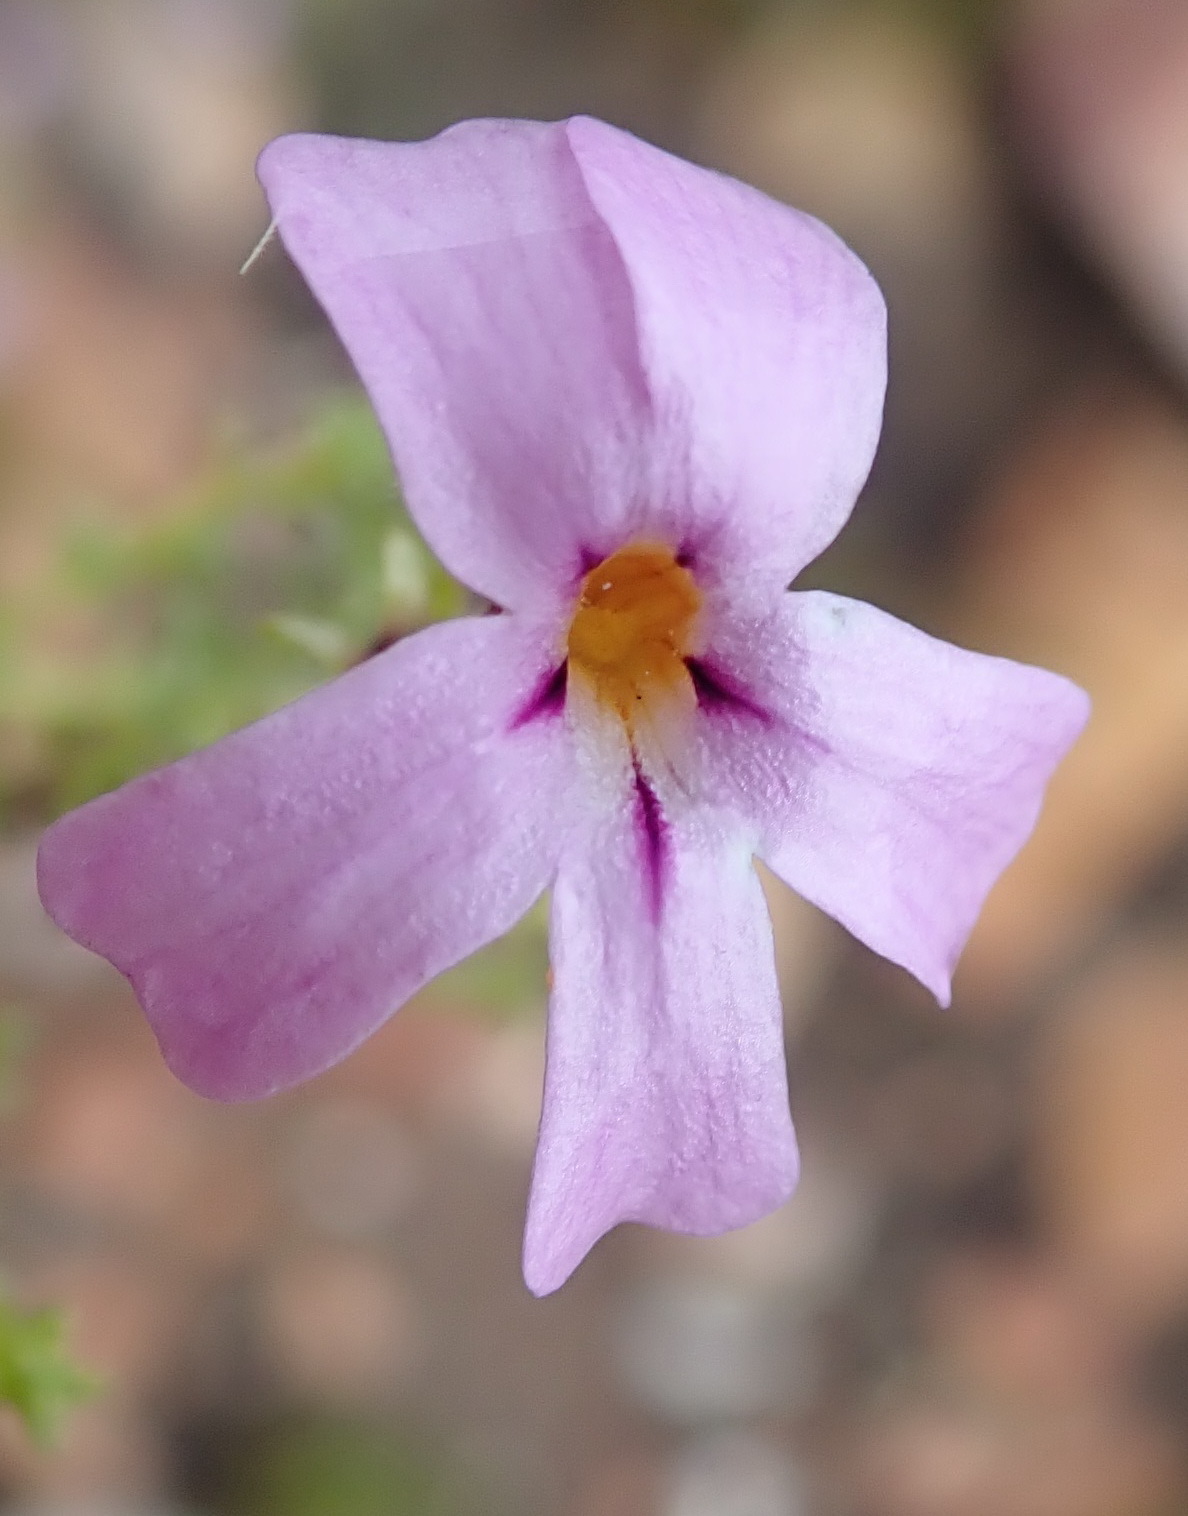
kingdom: Plantae
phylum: Tracheophyta
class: Magnoliopsida
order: Lamiales
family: Scrophulariaceae
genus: Jamesbrittenia
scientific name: Jamesbrittenia aspalathoides
